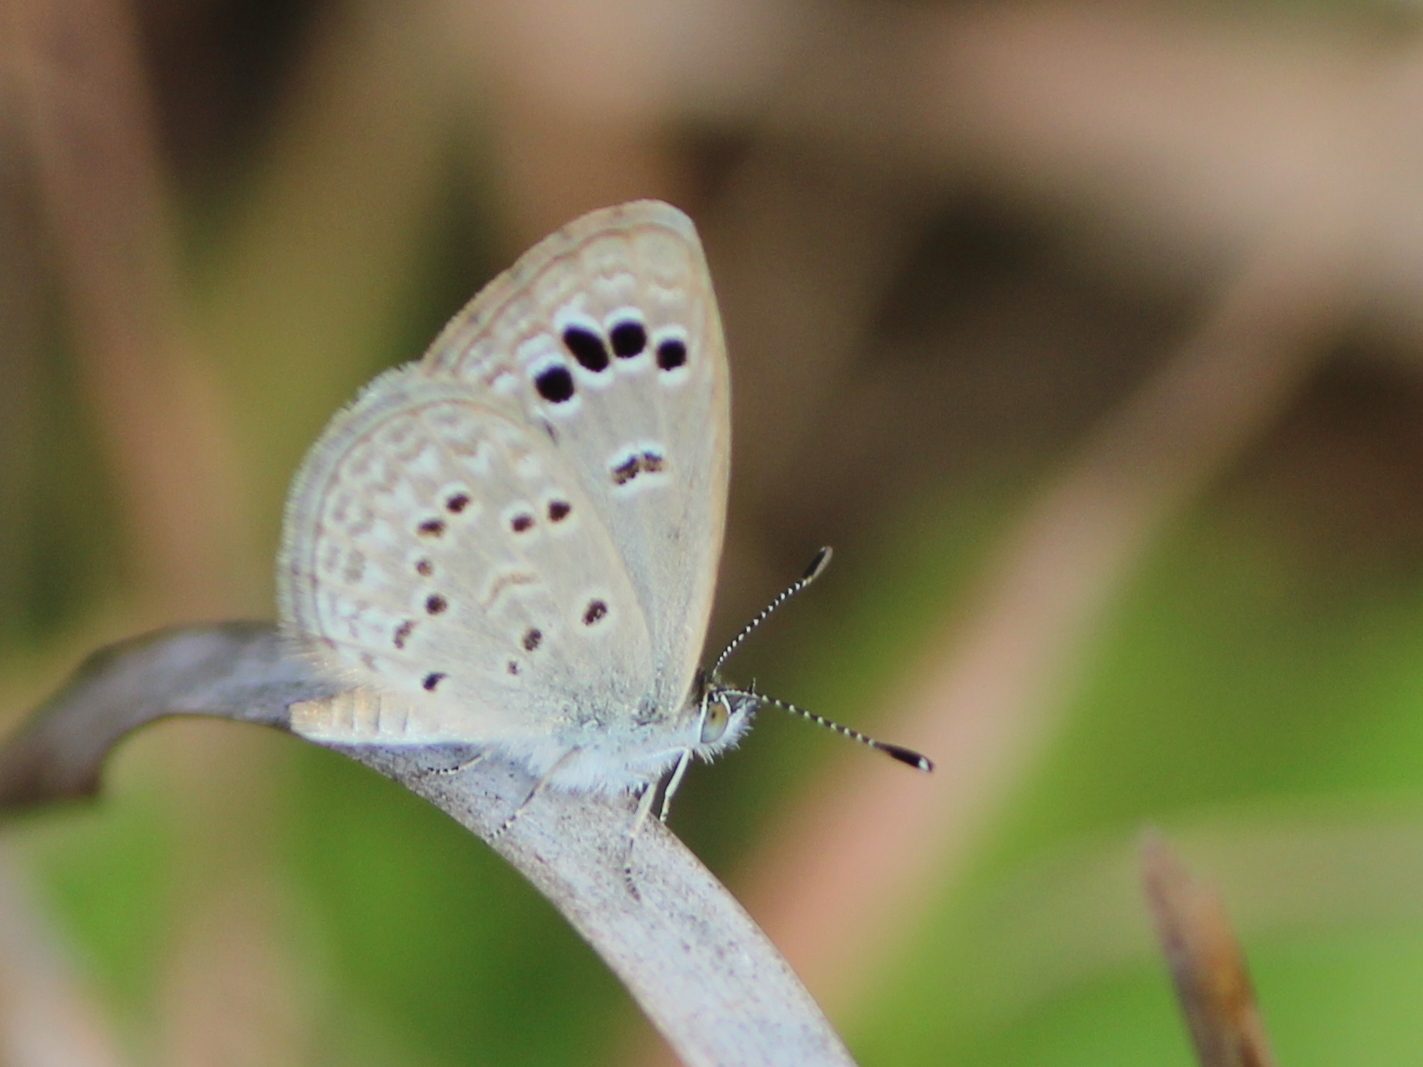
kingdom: Animalia
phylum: Arthropoda
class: Insecta
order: Lepidoptera
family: Lycaenidae
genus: Zizina
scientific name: Zizina otis
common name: Lesser grass blue
